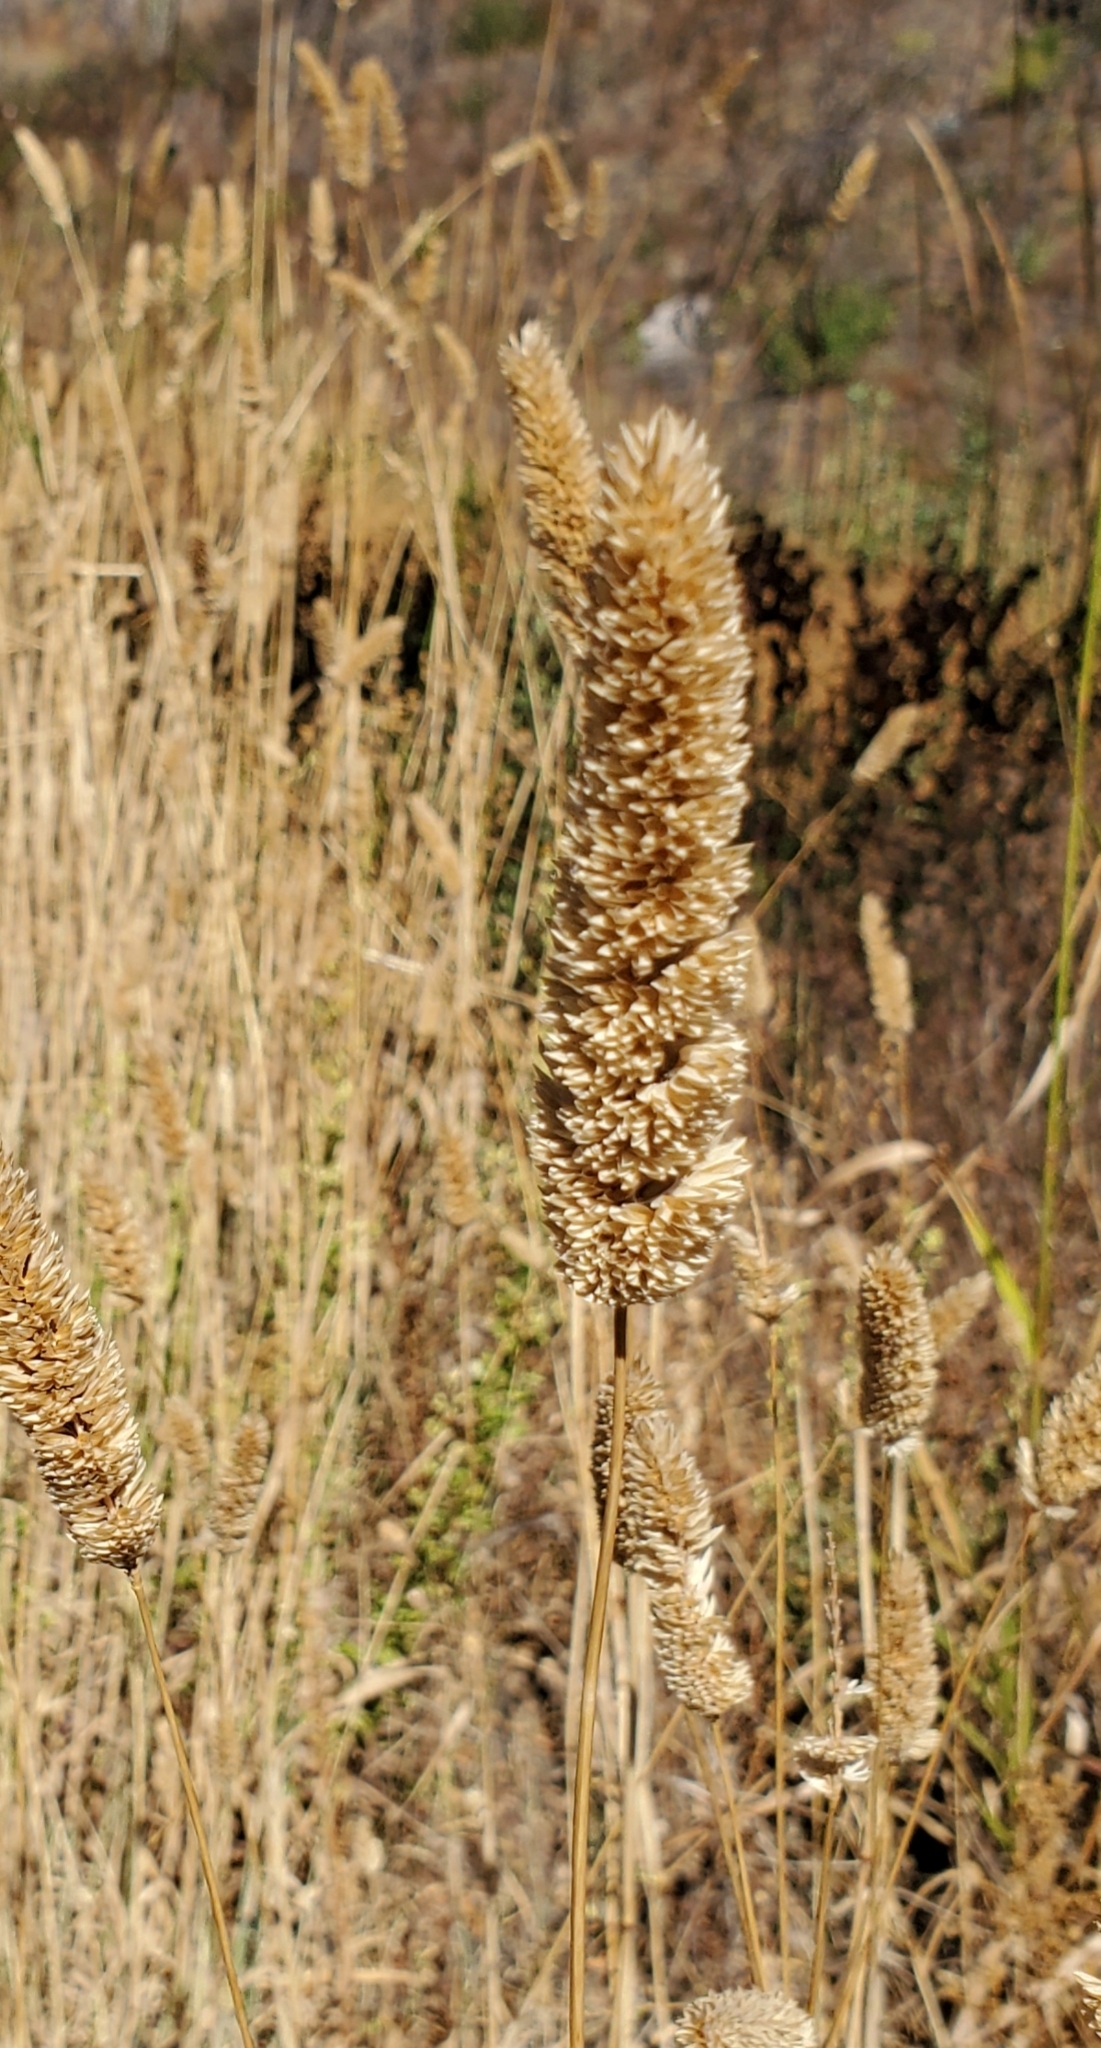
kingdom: Plantae
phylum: Tracheophyta
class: Liliopsida
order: Poales
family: Poaceae
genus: Phalaris
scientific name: Phalaris aquatica
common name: Bulbous canary-grass
